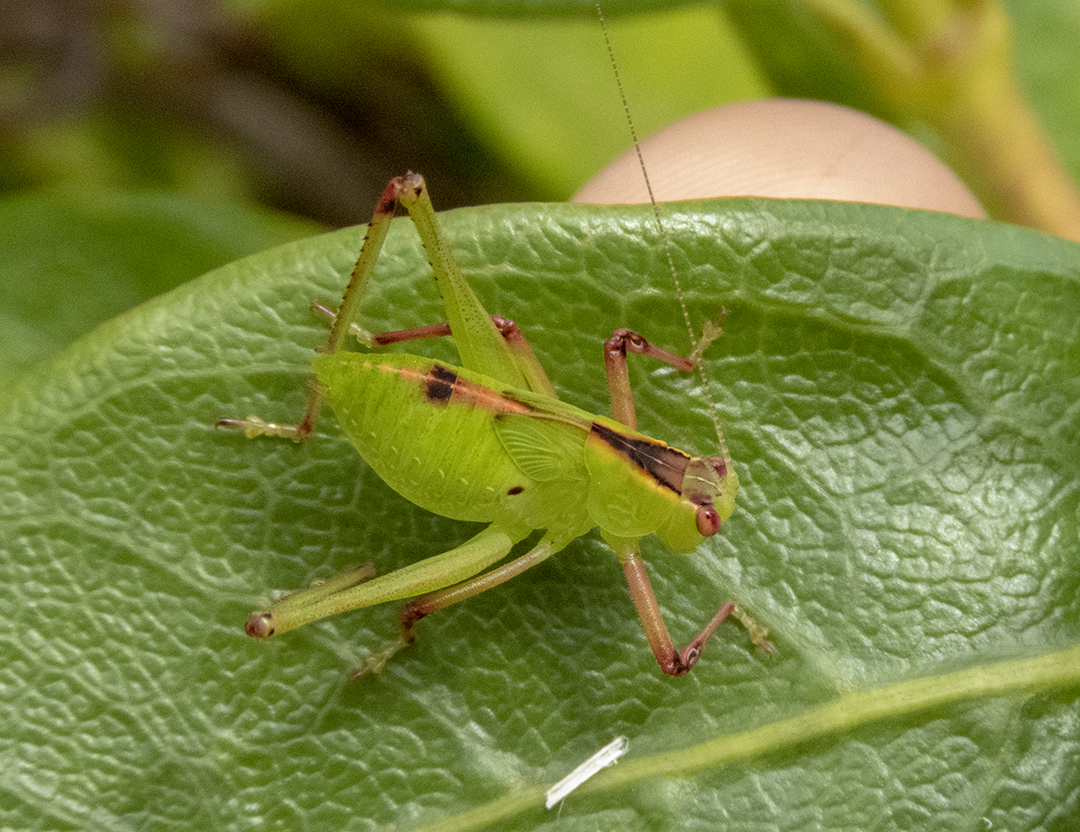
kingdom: Animalia
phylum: Arthropoda
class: Insecta
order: Orthoptera
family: Tettigoniidae
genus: Caedicia
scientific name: Caedicia simplex
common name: Common garden katydid
